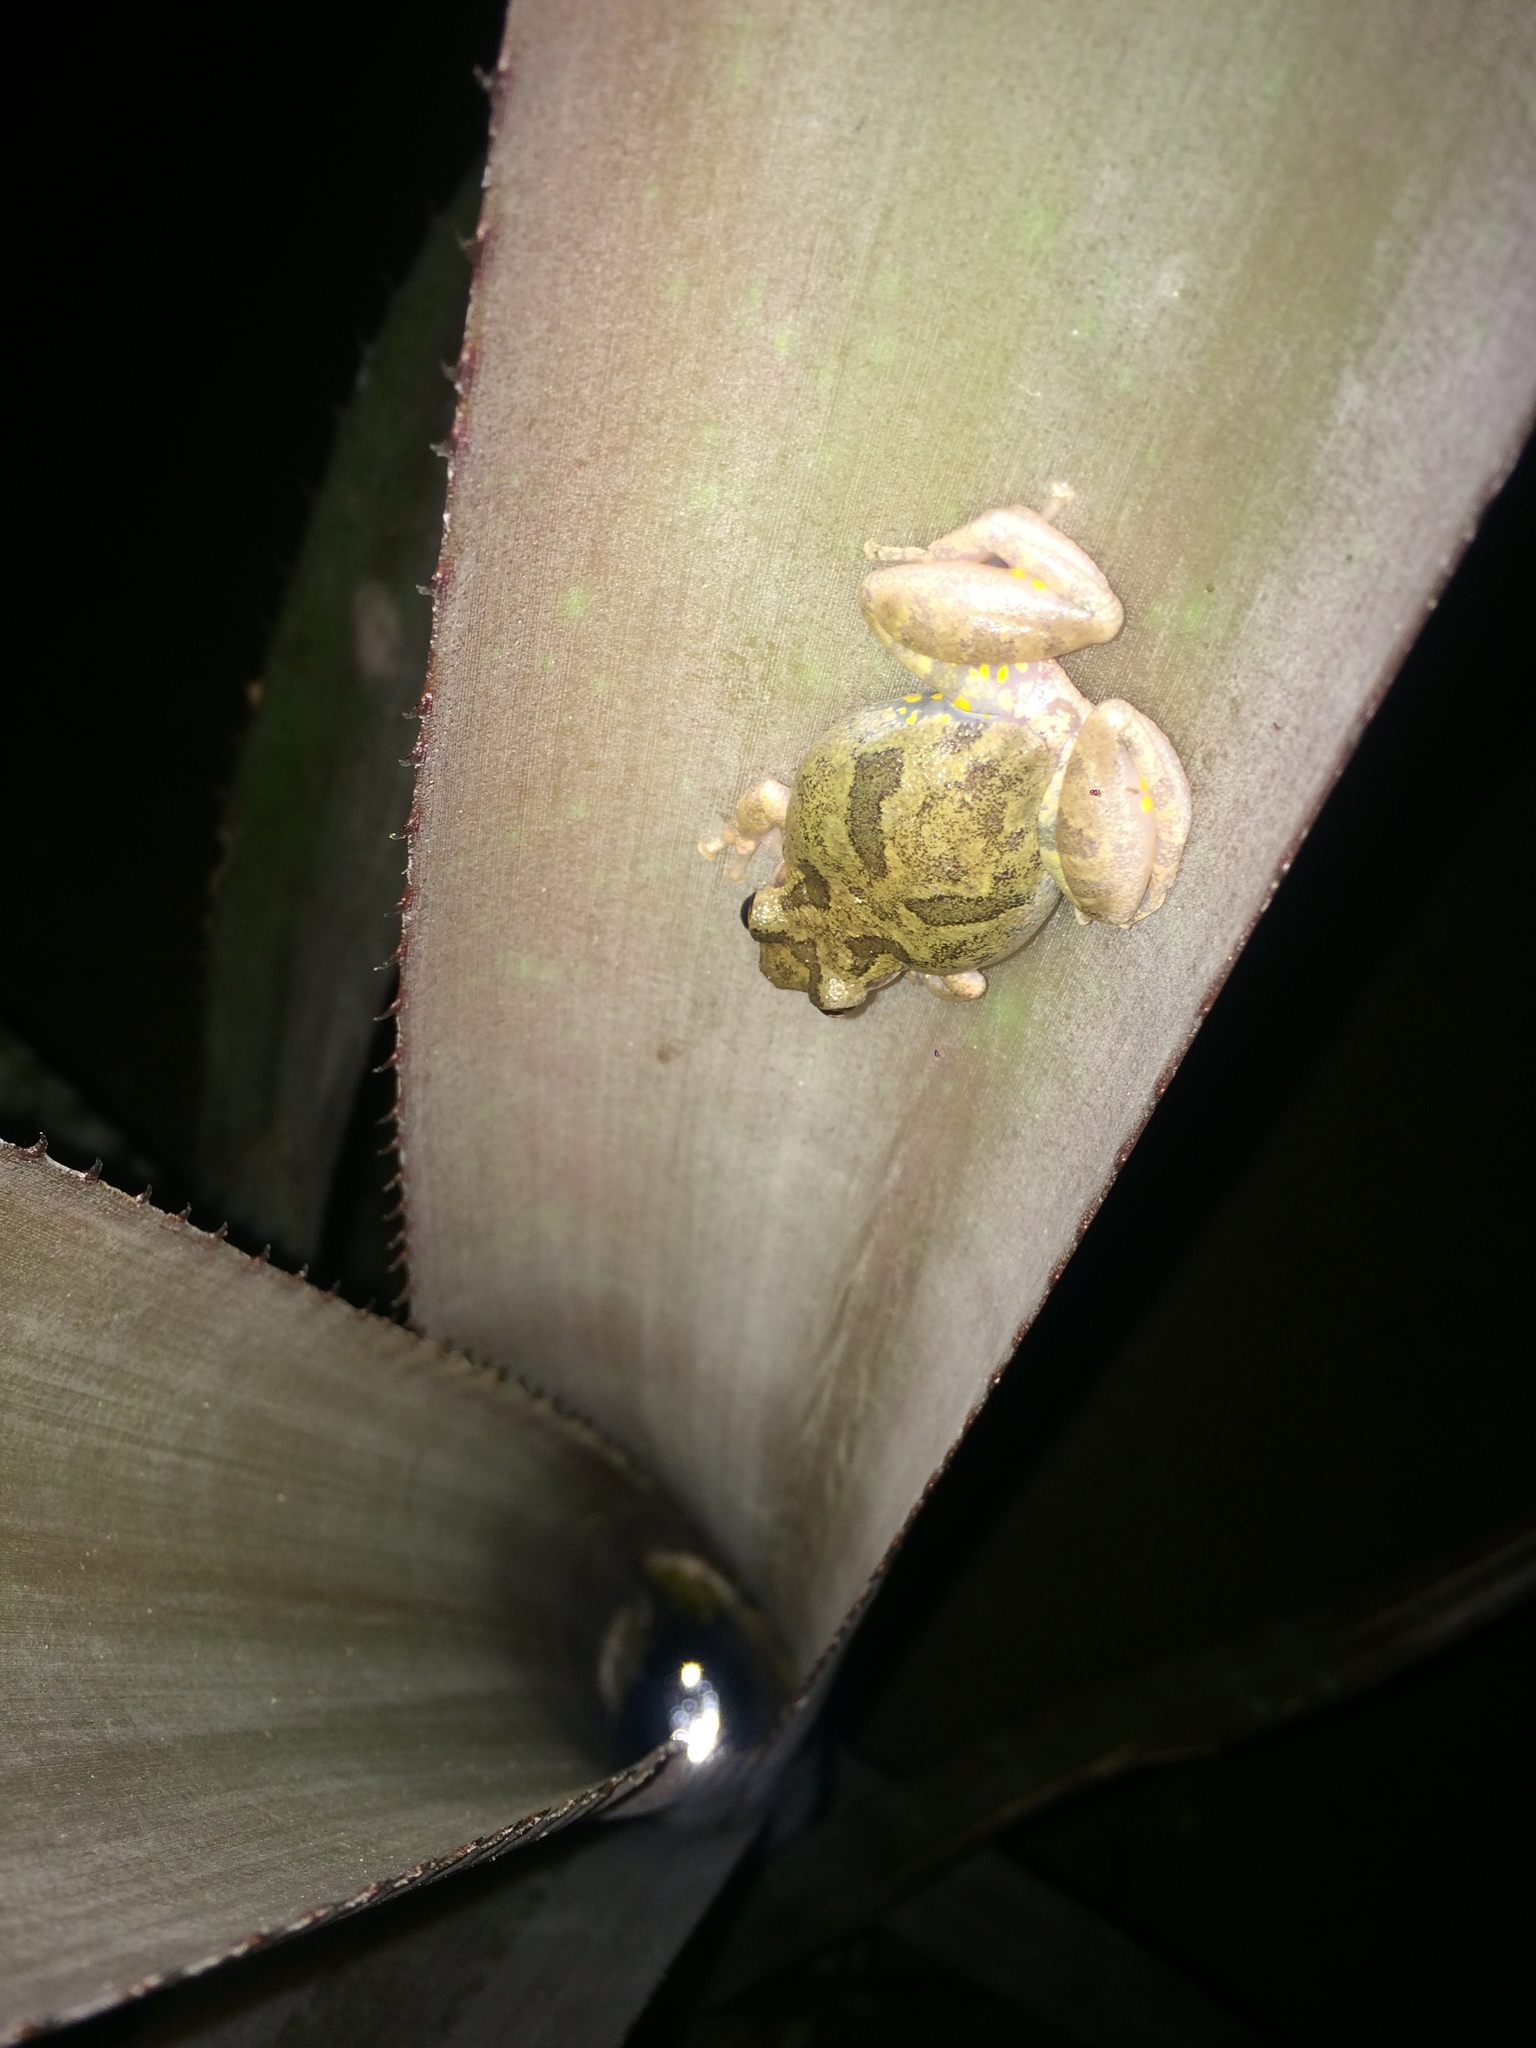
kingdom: Animalia
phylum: Chordata
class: Amphibia
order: Anura
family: Hylidae
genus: Scinax
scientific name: Scinax x-signatus
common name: Venezuela snouted treefrog
